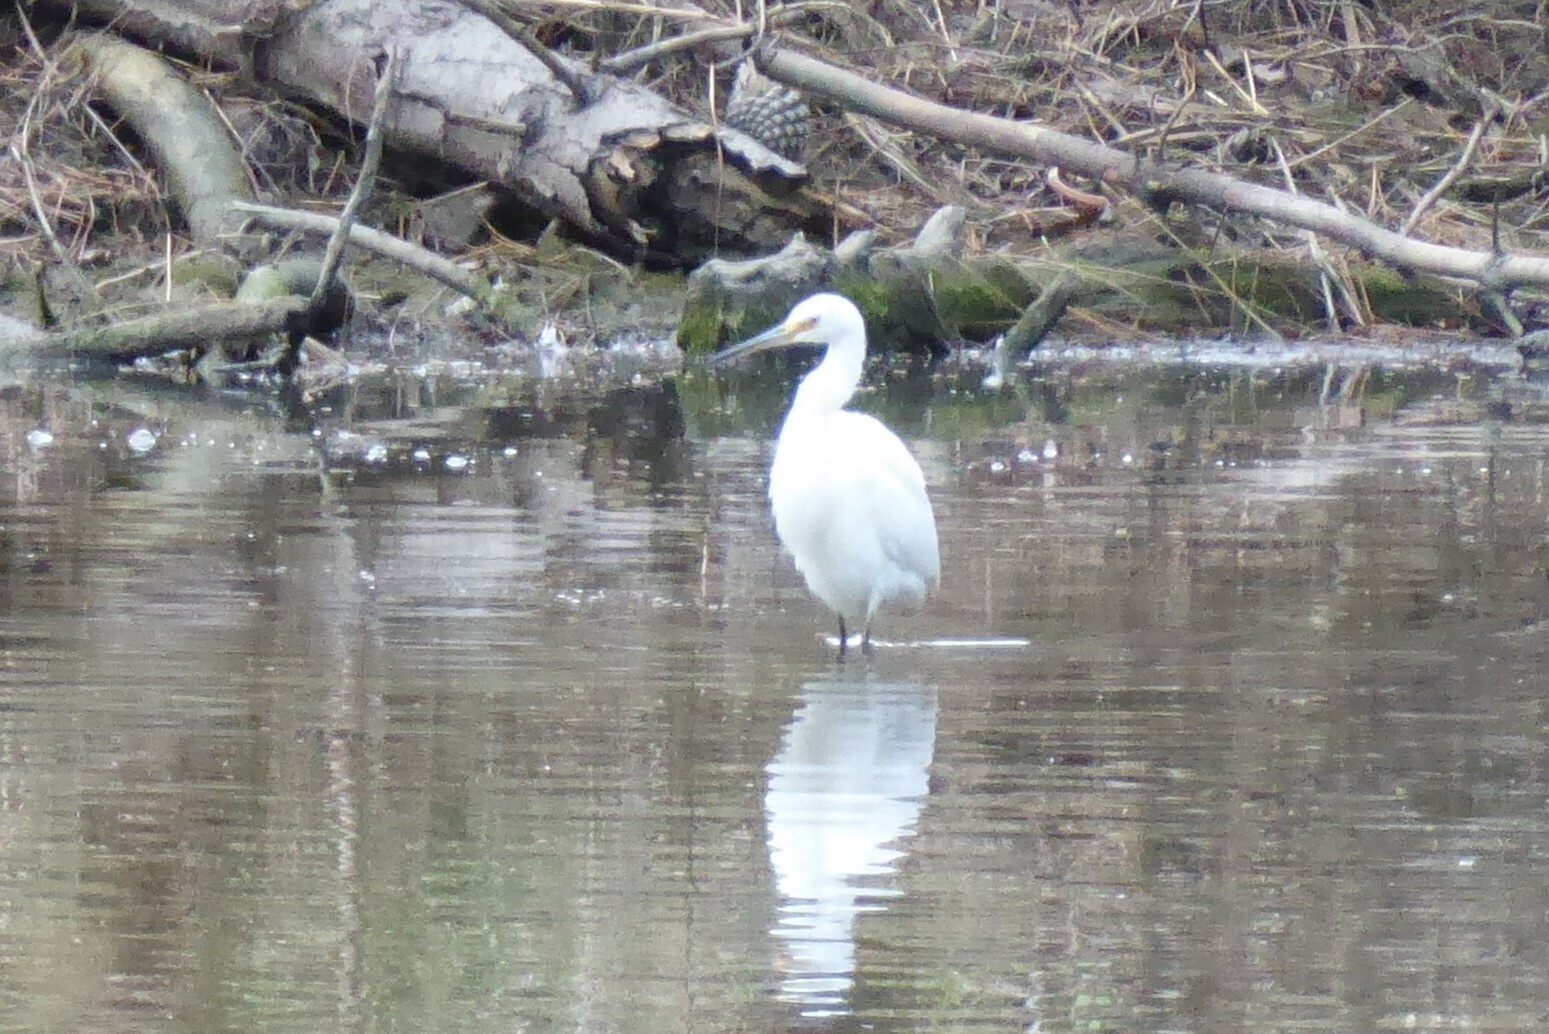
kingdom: Animalia
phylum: Chordata
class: Aves
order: Pelecaniformes
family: Ardeidae
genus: Egretta
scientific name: Egretta garzetta
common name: Little egret
